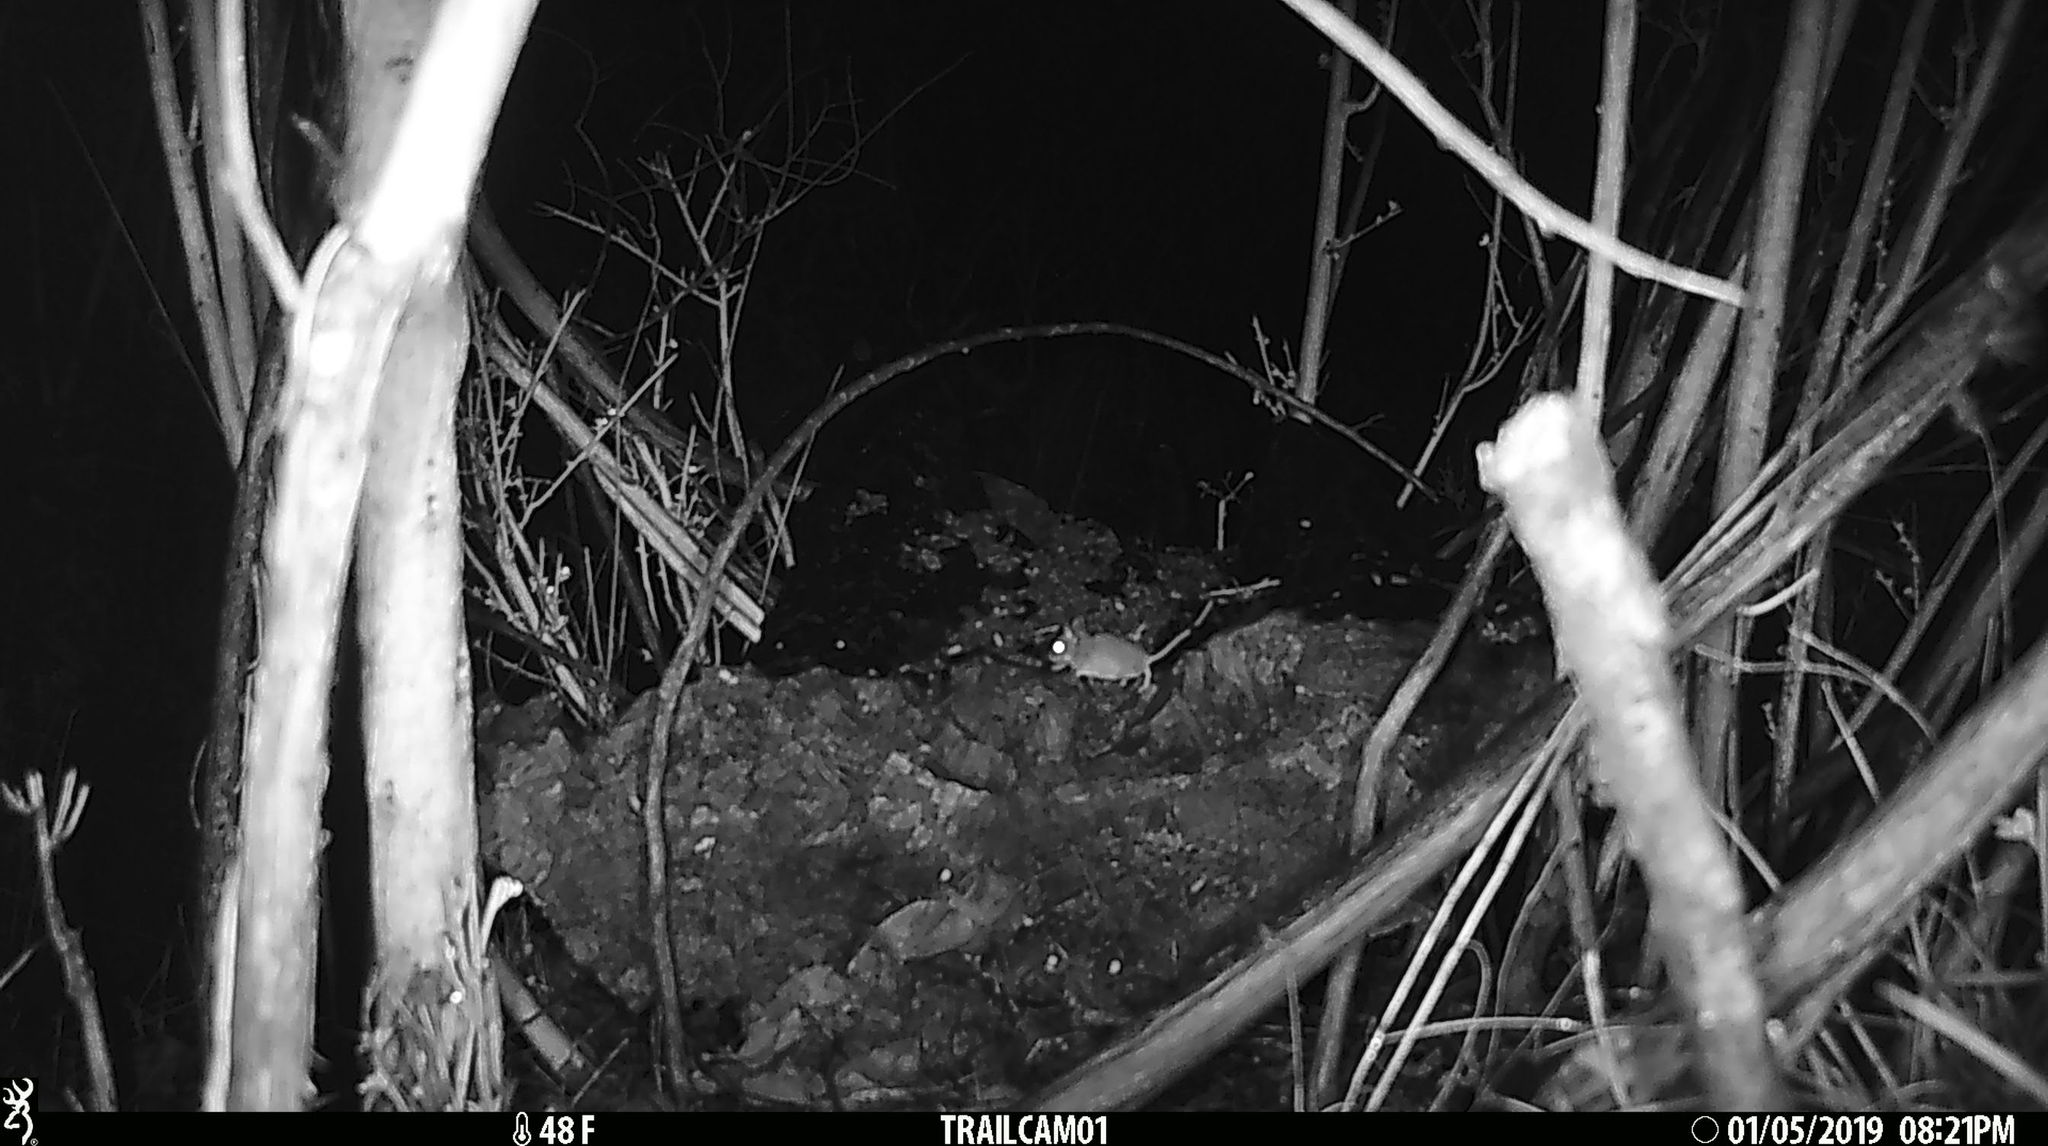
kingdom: Animalia
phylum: Chordata
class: Mammalia
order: Rodentia
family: Cricetidae
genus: Peromyscus
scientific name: Peromyscus maniculatus
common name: Deer mouse
